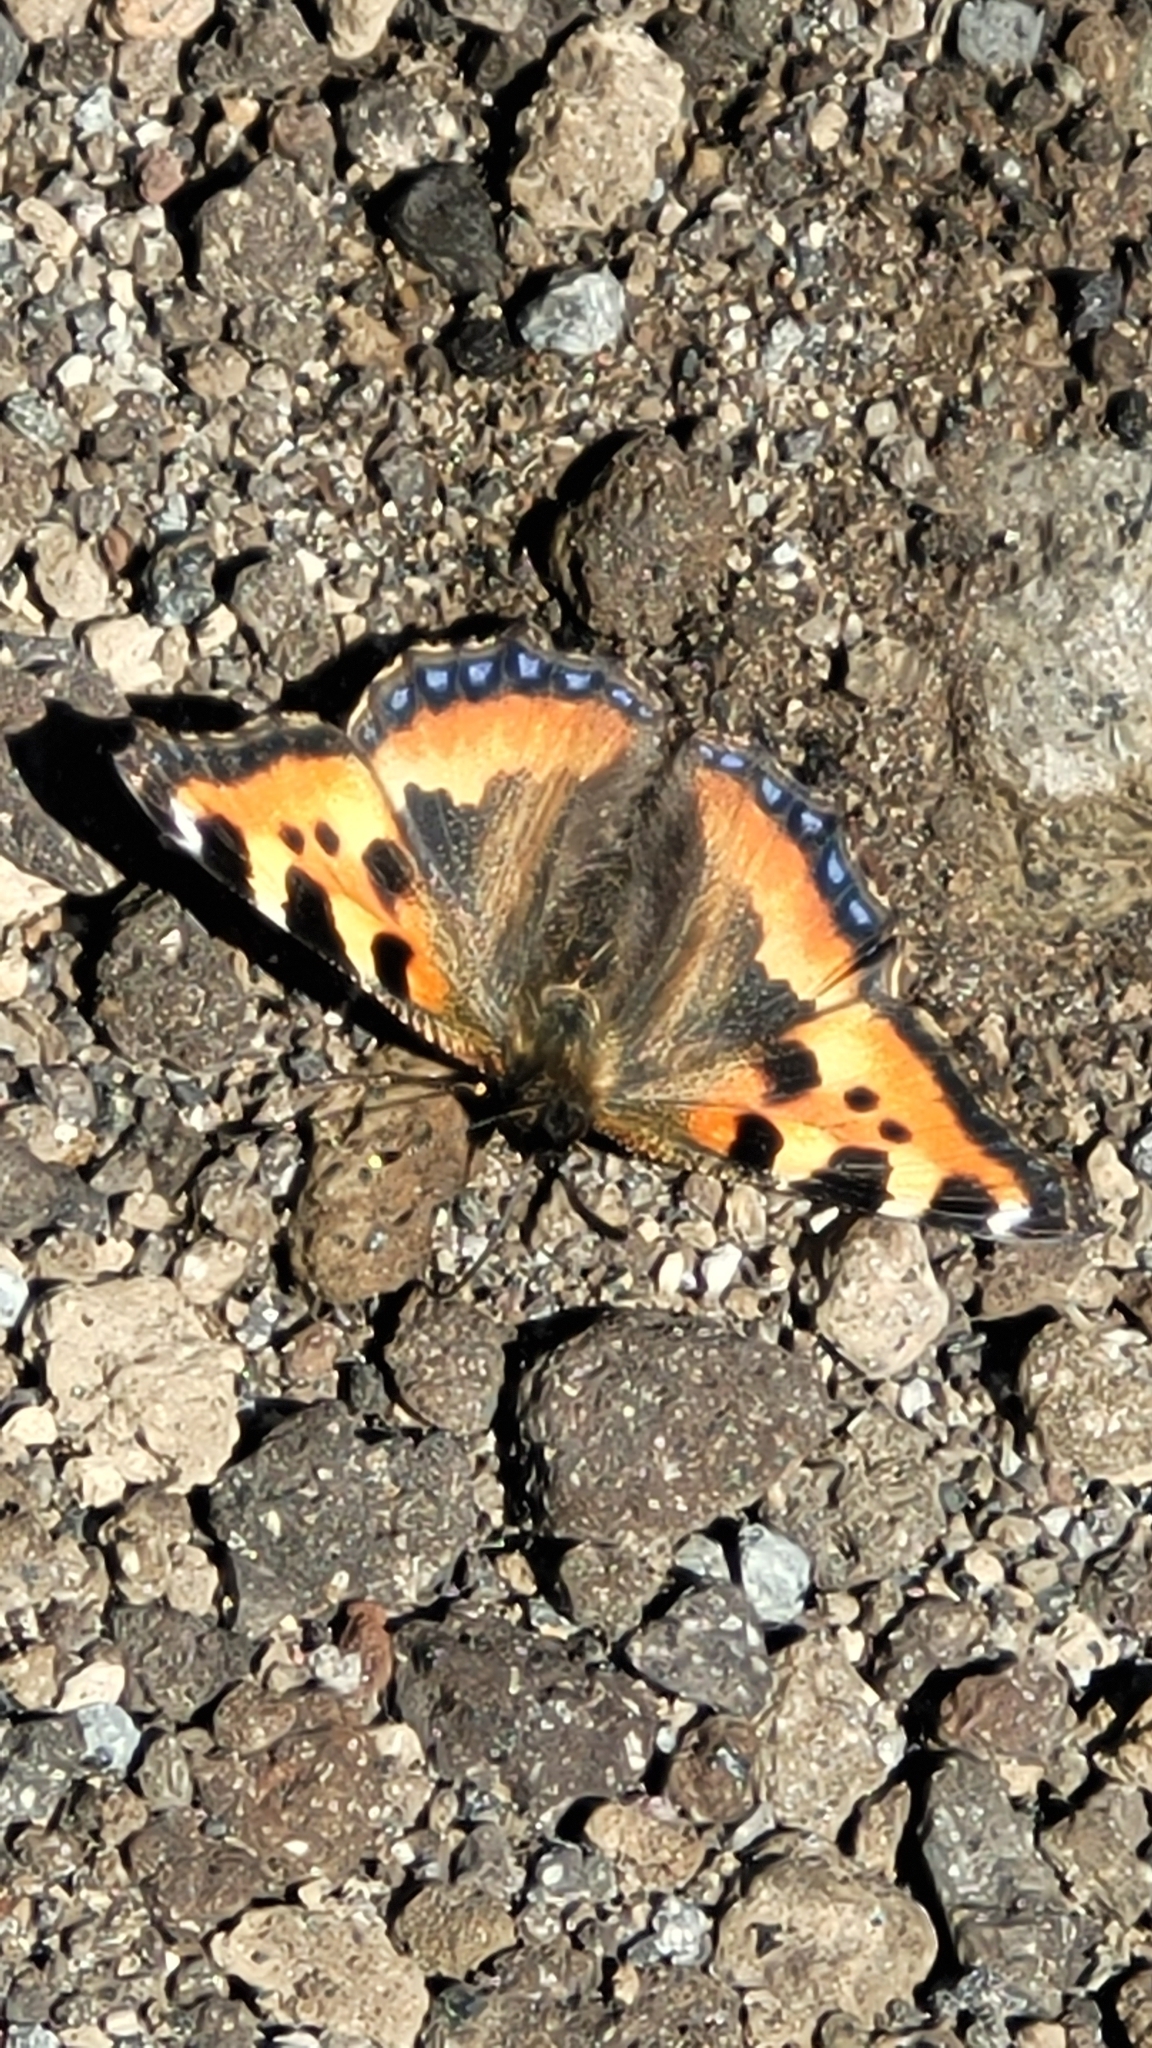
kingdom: Animalia
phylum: Arthropoda
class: Insecta
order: Lepidoptera
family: Nymphalidae
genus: Aglais
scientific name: Aglais urticae
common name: Small tortoiseshell
